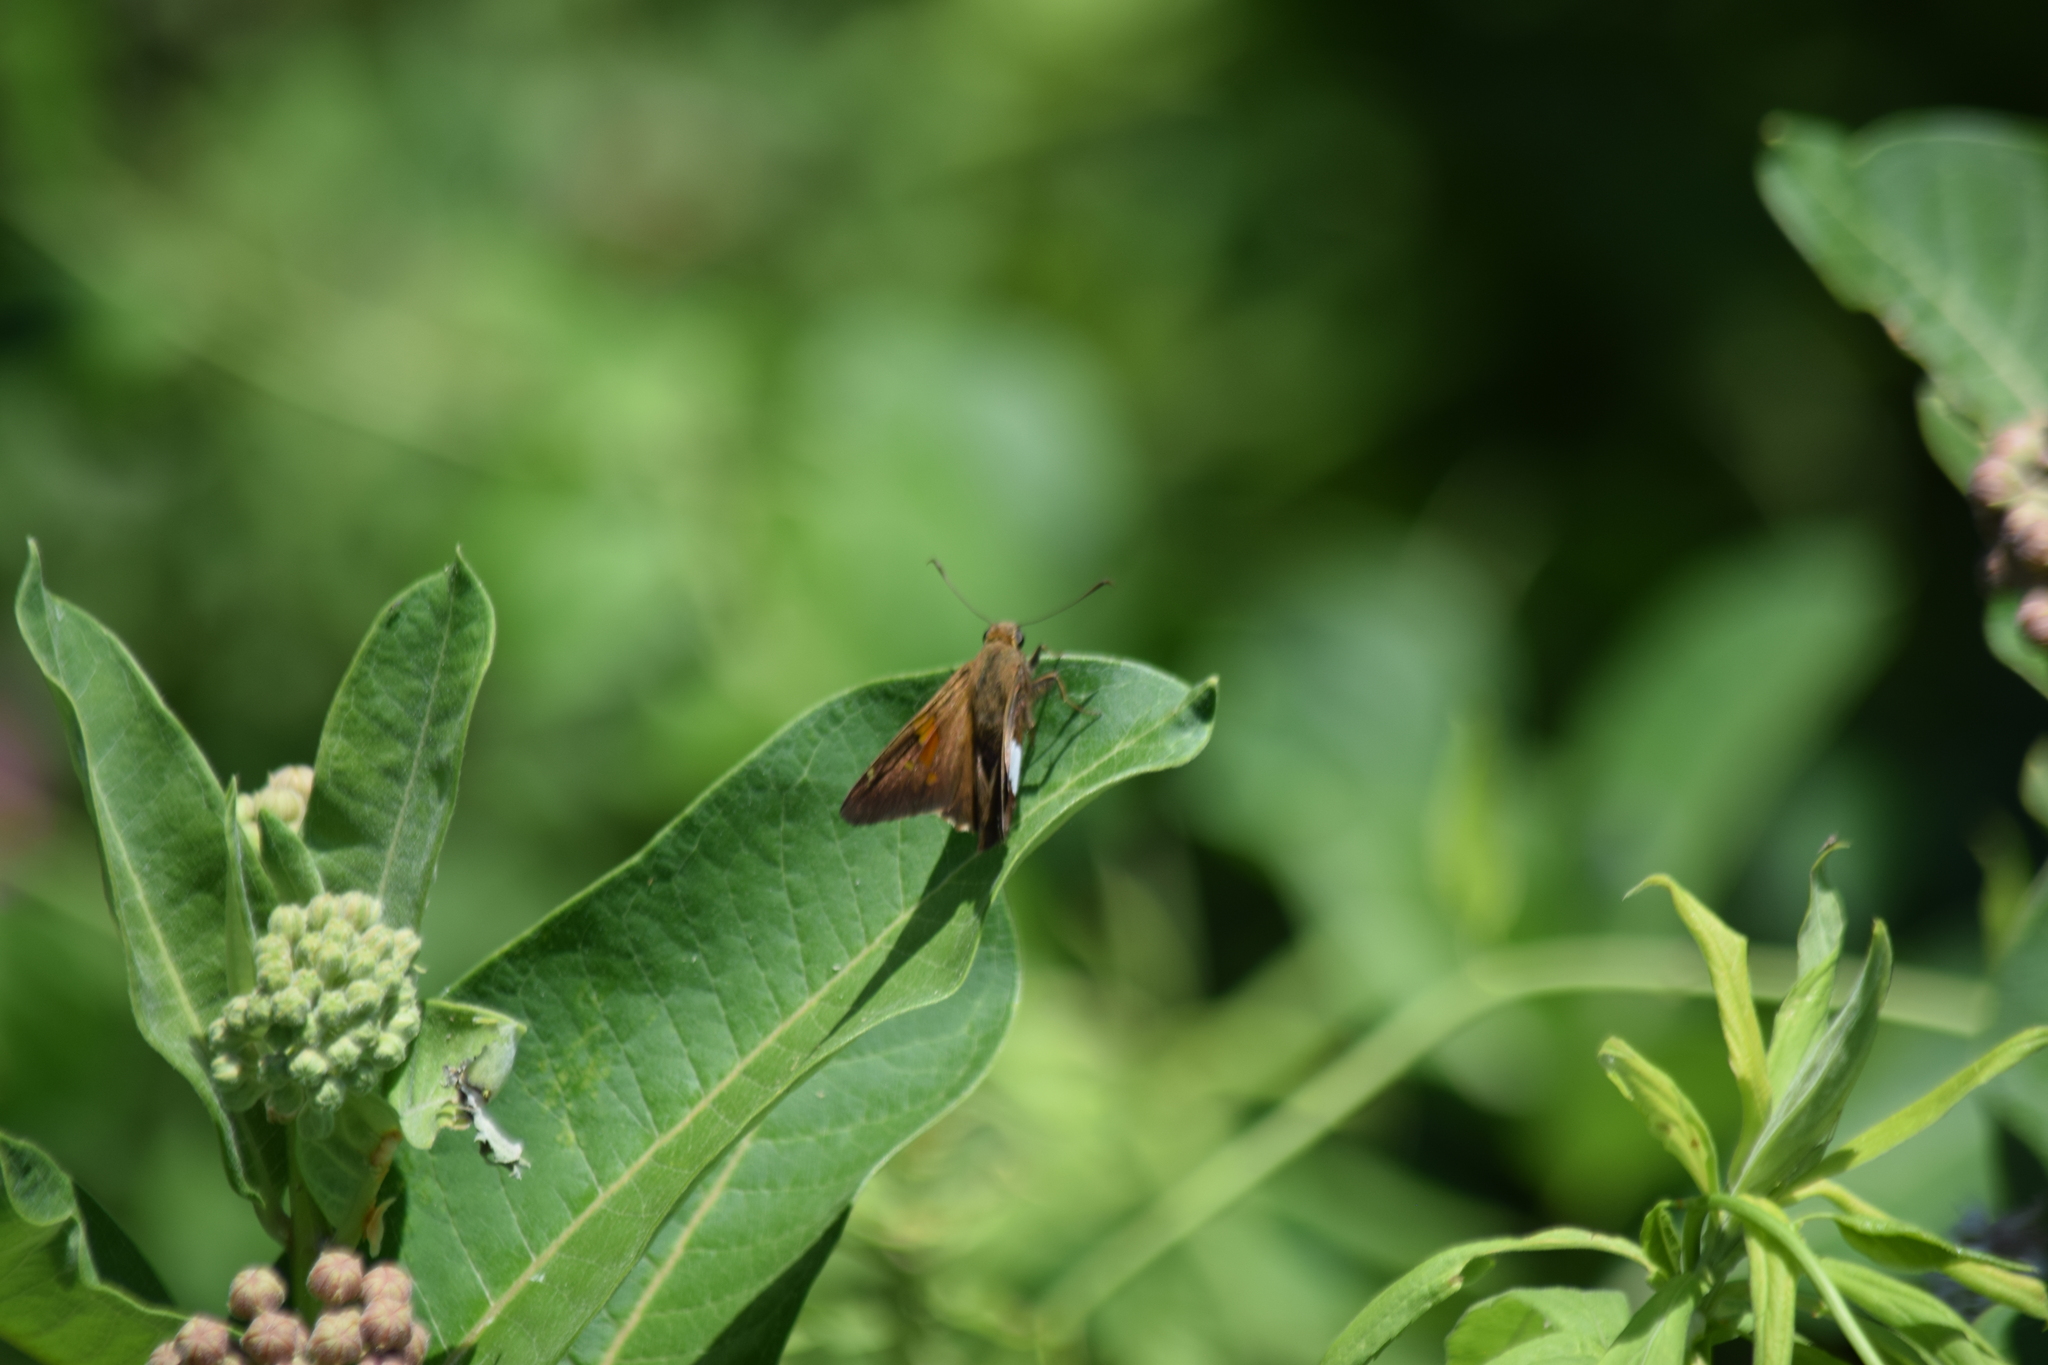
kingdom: Animalia
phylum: Arthropoda
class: Insecta
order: Lepidoptera
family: Hesperiidae
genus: Epargyreus
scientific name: Epargyreus clarus
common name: Silver-spotted skipper
